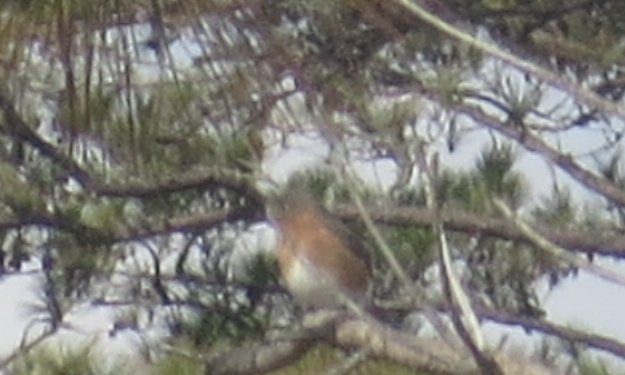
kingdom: Animalia
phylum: Chordata
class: Aves
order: Passeriformes
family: Turdidae
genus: Sialia
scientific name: Sialia sialis
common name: Eastern bluebird
